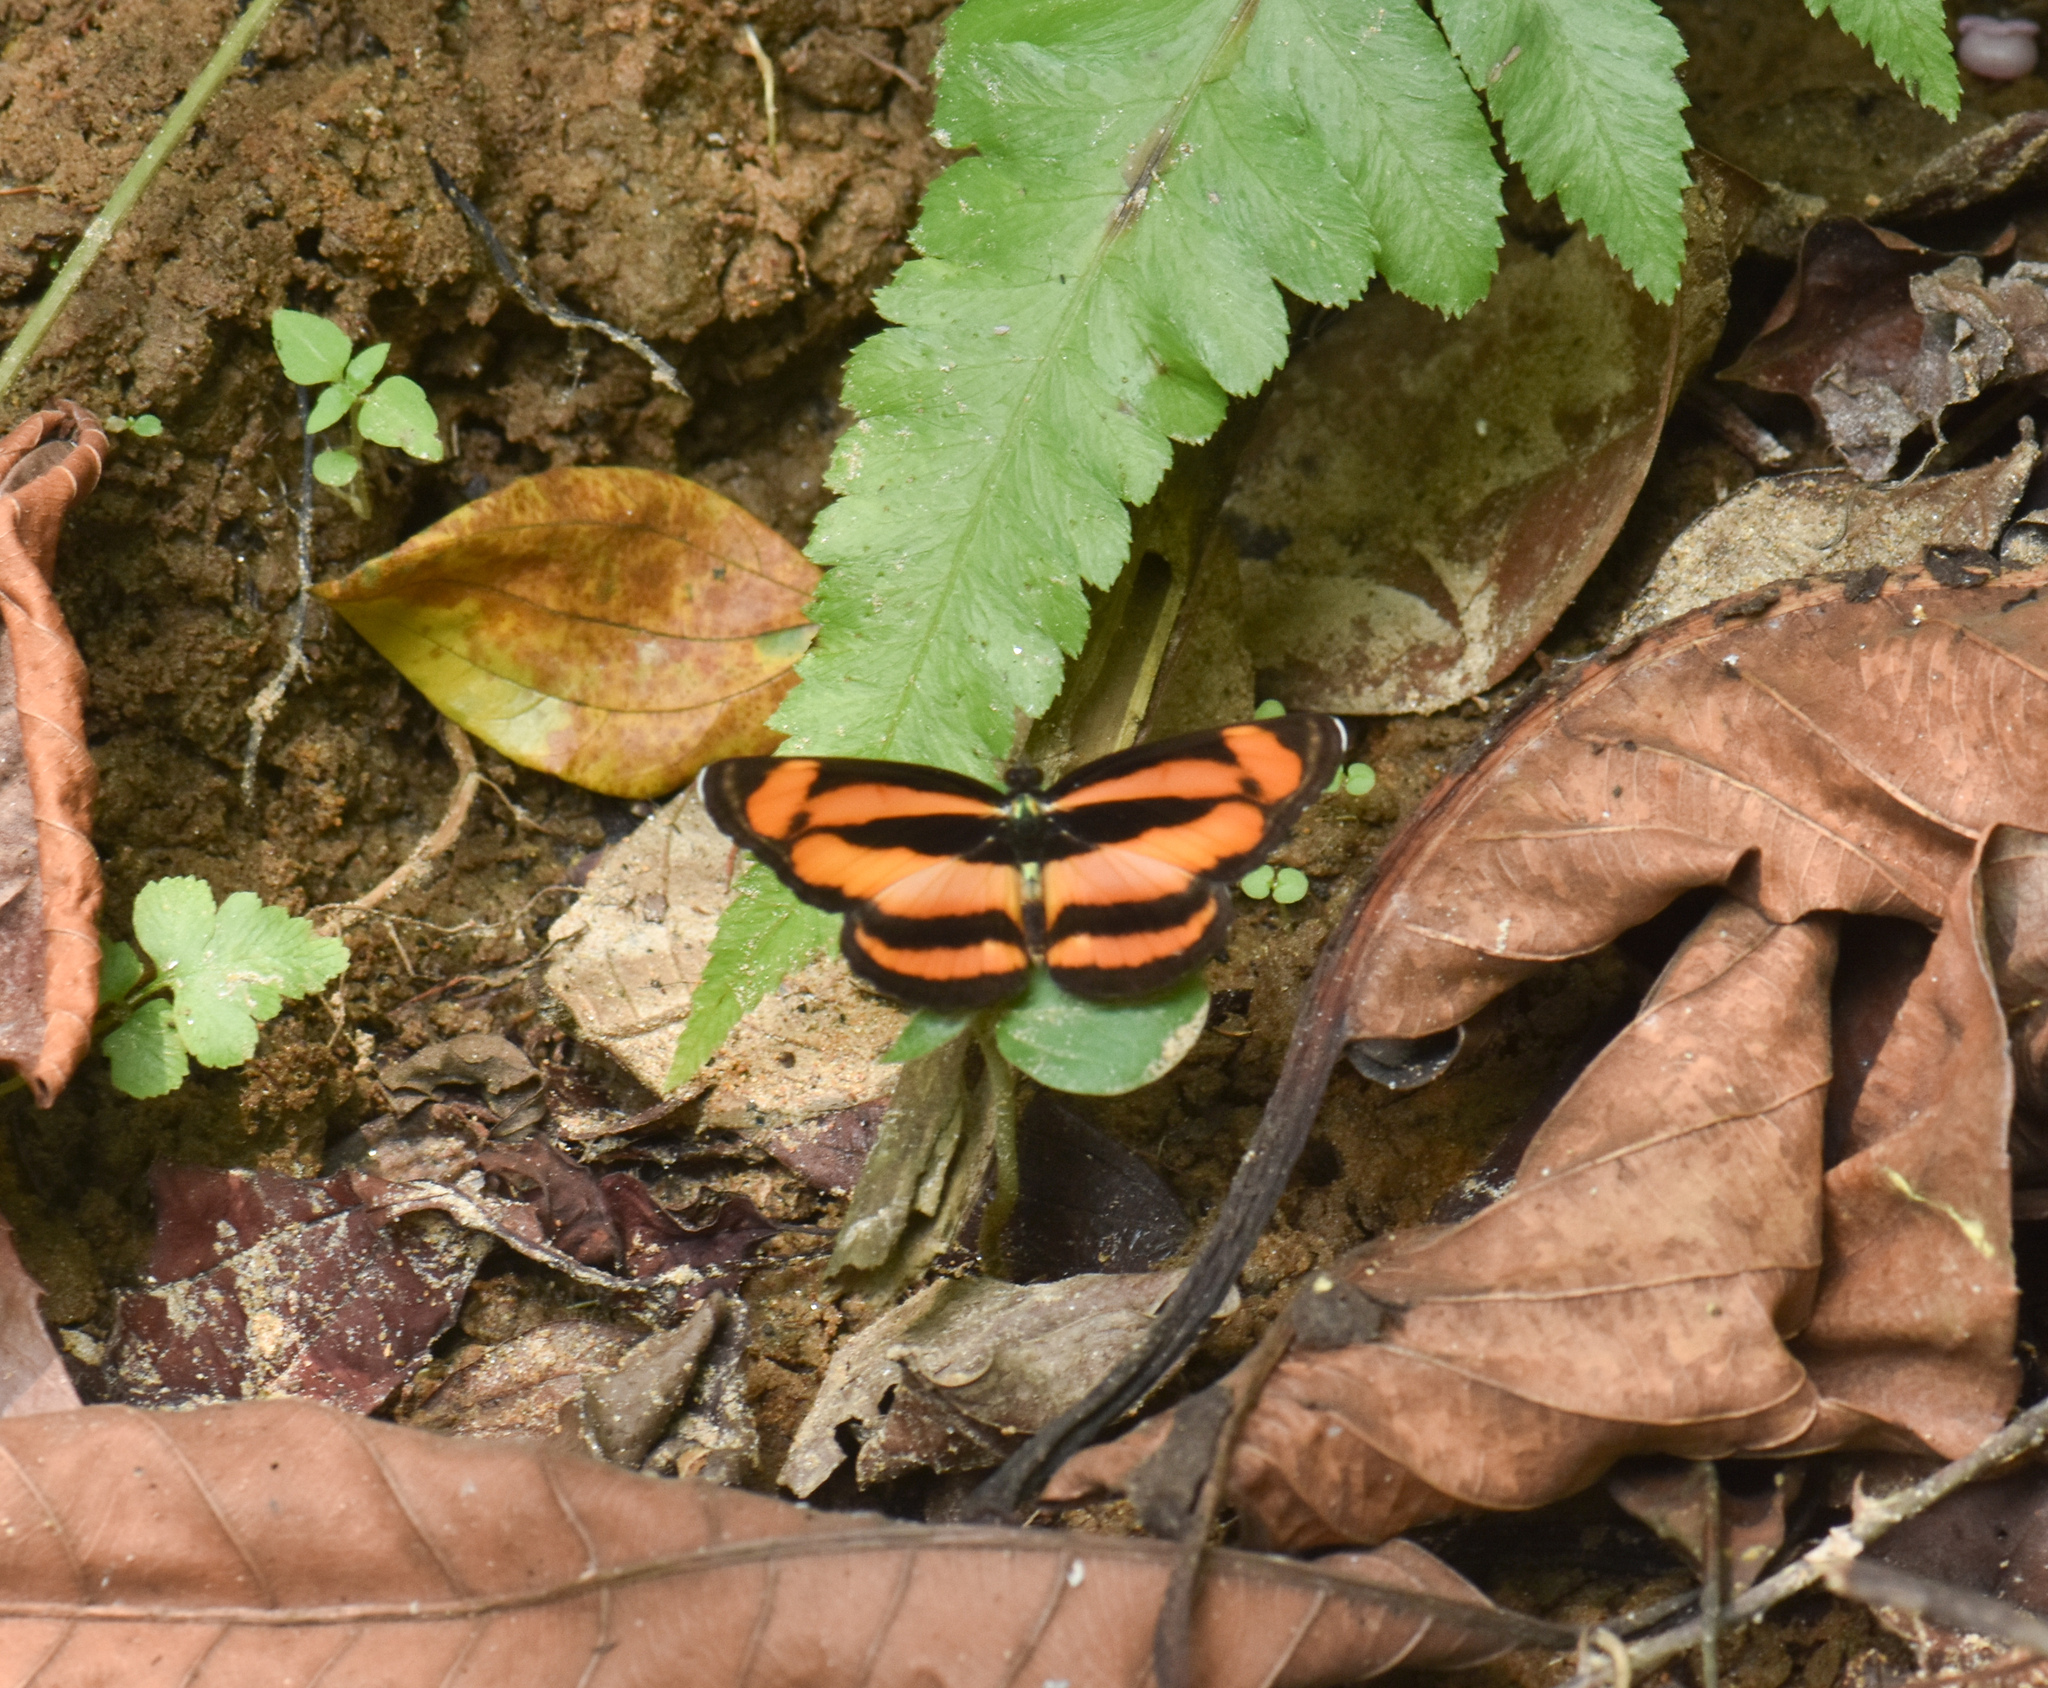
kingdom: Animalia
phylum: Arthropoda
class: Insecta
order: Lepidoptera
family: Nymphalidae
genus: Lasippa
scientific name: Lasippa viraja
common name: Yellowjack sailer
